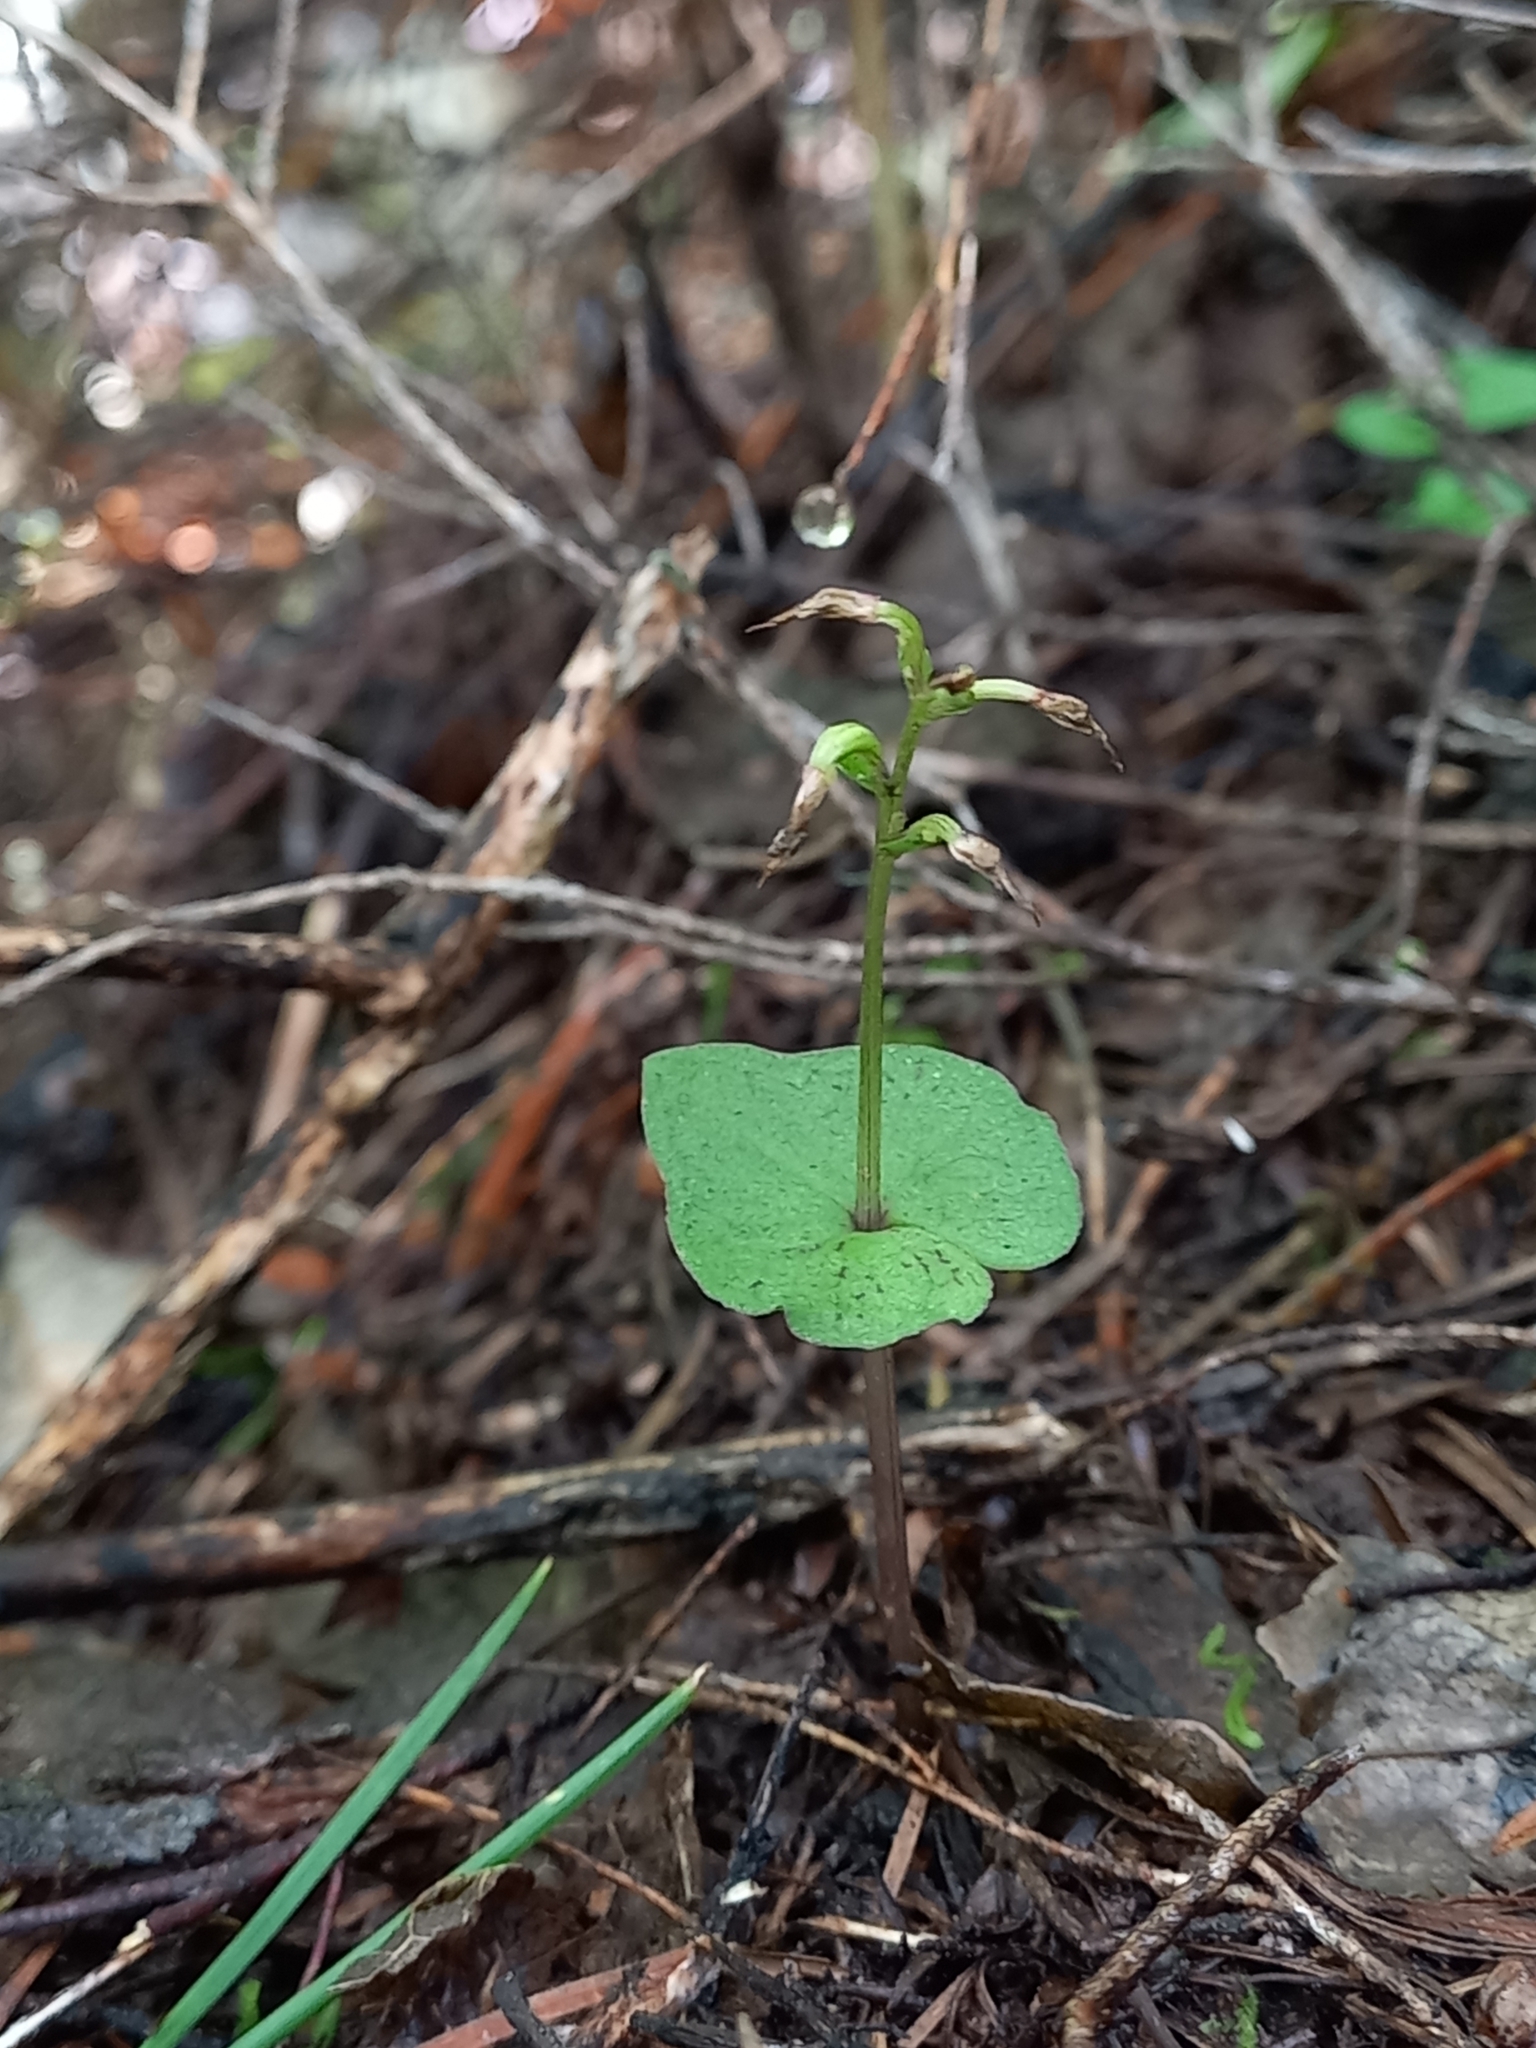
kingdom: Plantae
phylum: Tracheophyta
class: Liliopsida
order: Asparagales
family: Orchidaceae
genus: Acianthus
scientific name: Acianthus sinclairii
